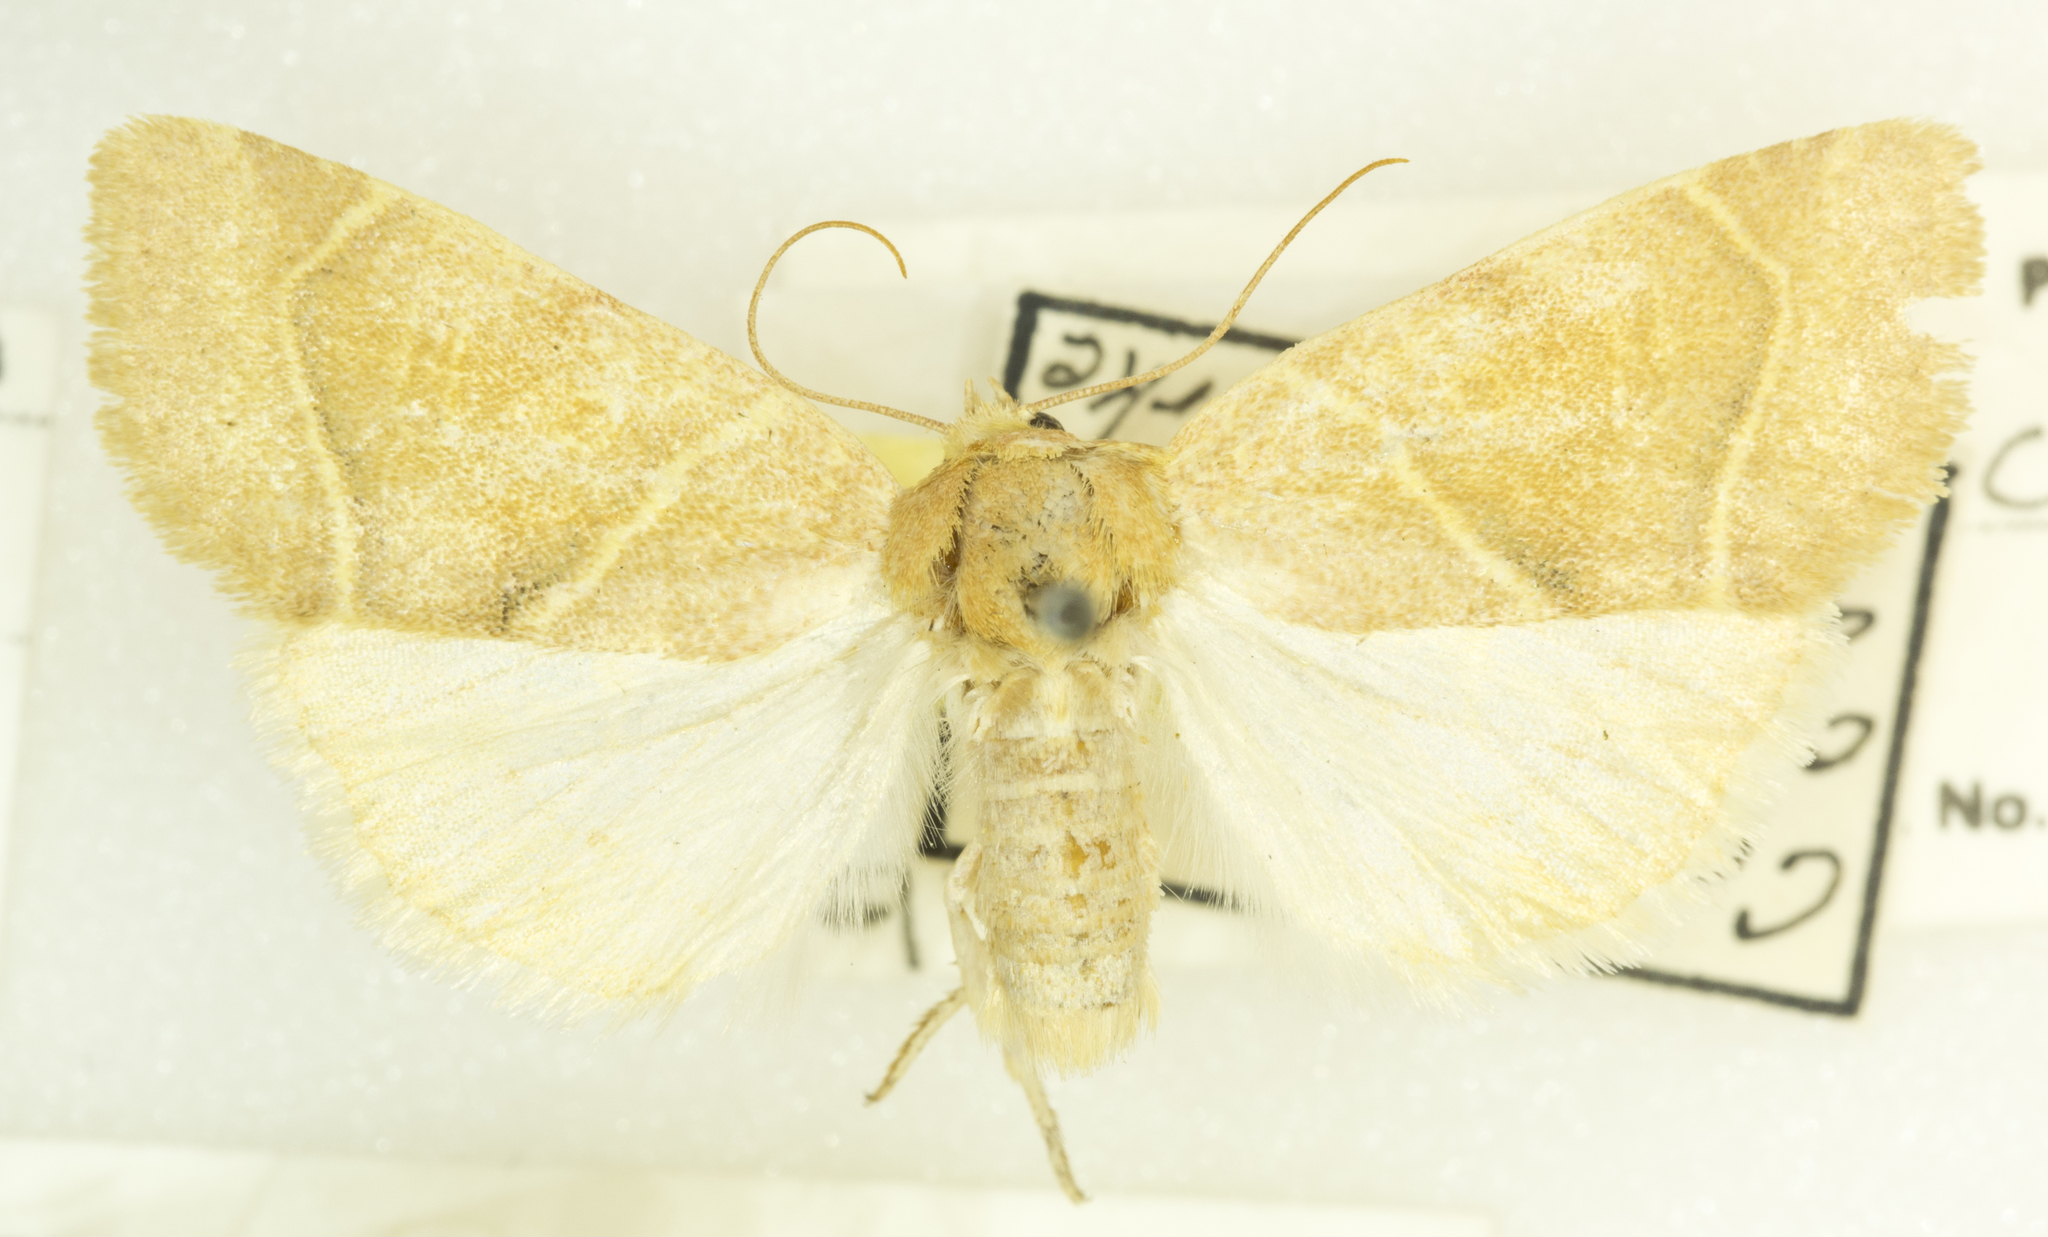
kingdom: Animalia
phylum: Arthropoda
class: Insecta
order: Lepidoptera
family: Noctuidae
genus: Cosmia
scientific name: Cosmia calami
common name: American dun-bar moth
